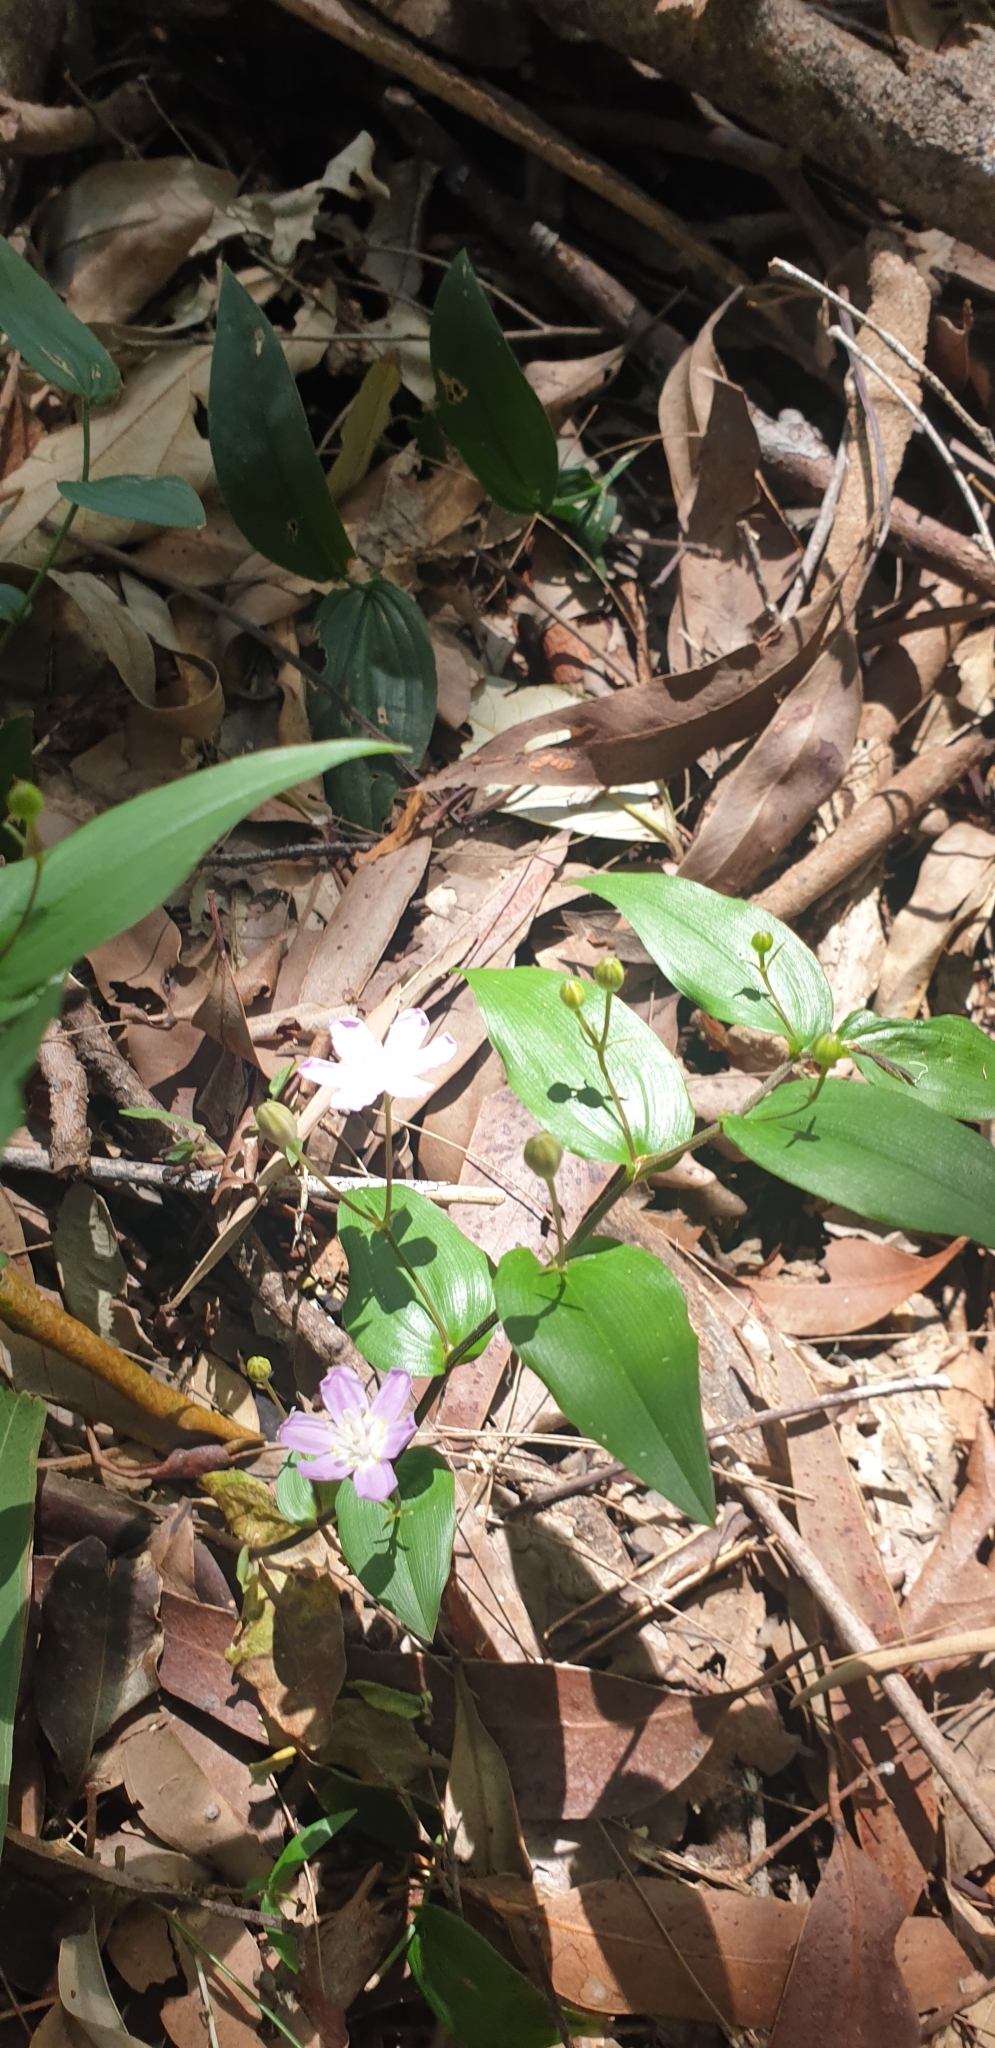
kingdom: Plantae
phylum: Tracheophyta
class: Liliopsida
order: Liliales
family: Colchicaceae
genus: Tripladenia
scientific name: Tripladenia cunninghamii
